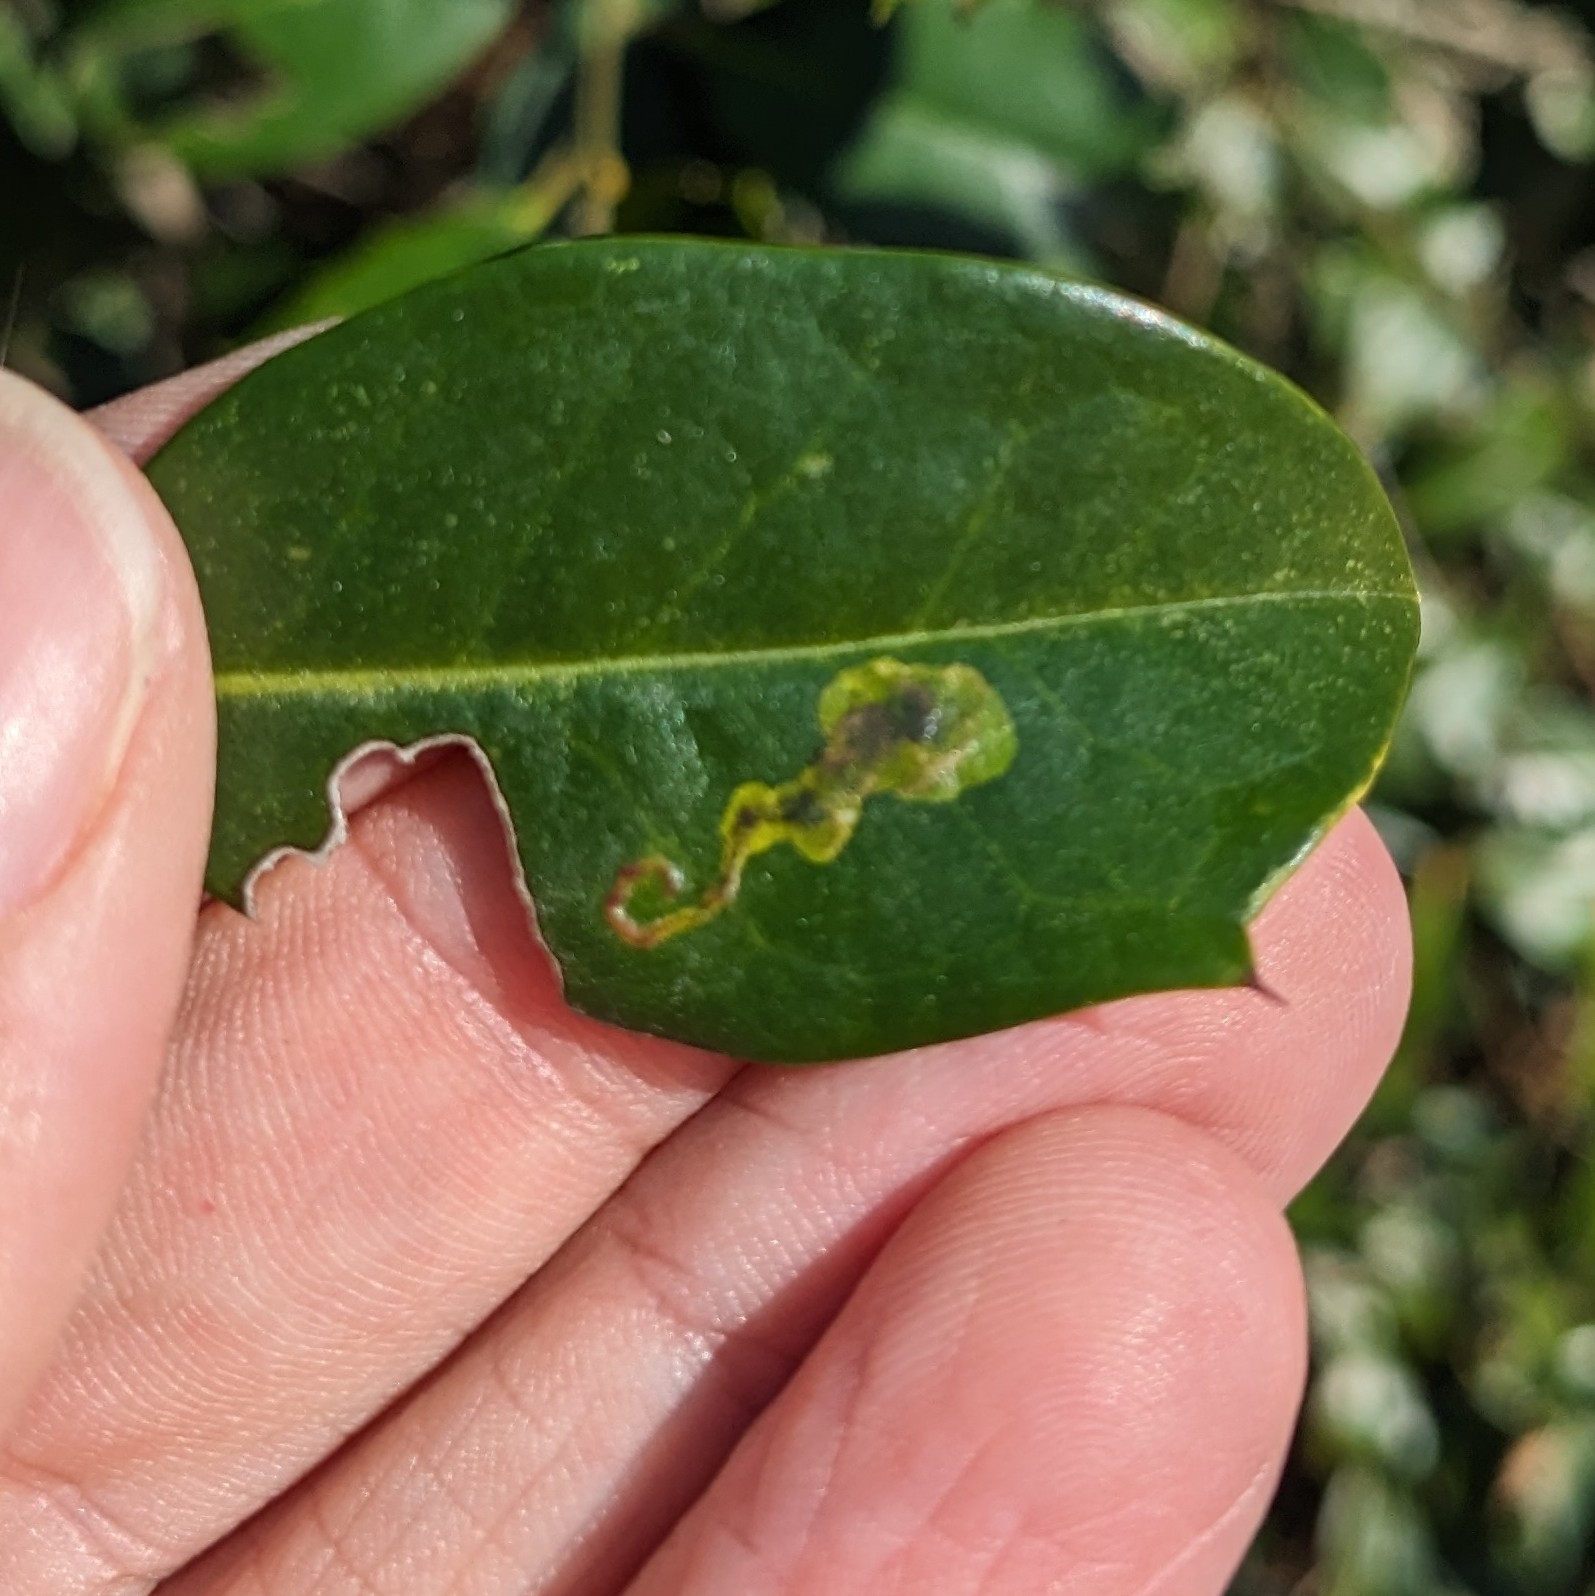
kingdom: Animalia
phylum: Arthropoda
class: Insecta
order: Diptera
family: Agromyzidae
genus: Phytomyza
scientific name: Phytomyza ilicicola
